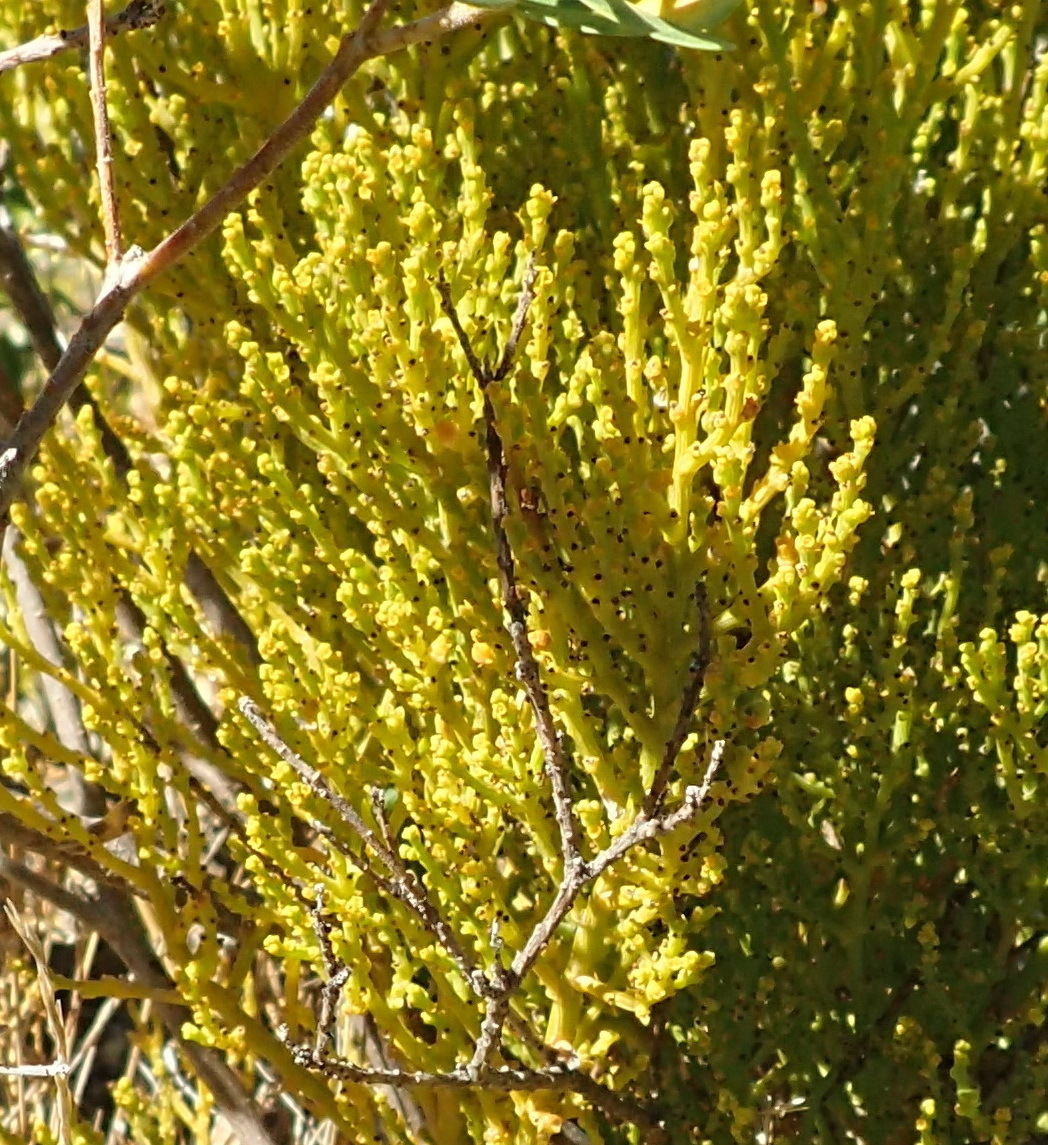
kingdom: Plantae
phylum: Tracheophyta
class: Magnoliopsida
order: Santalales
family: Thesiaceae
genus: Thesium
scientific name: Thesium fragile
